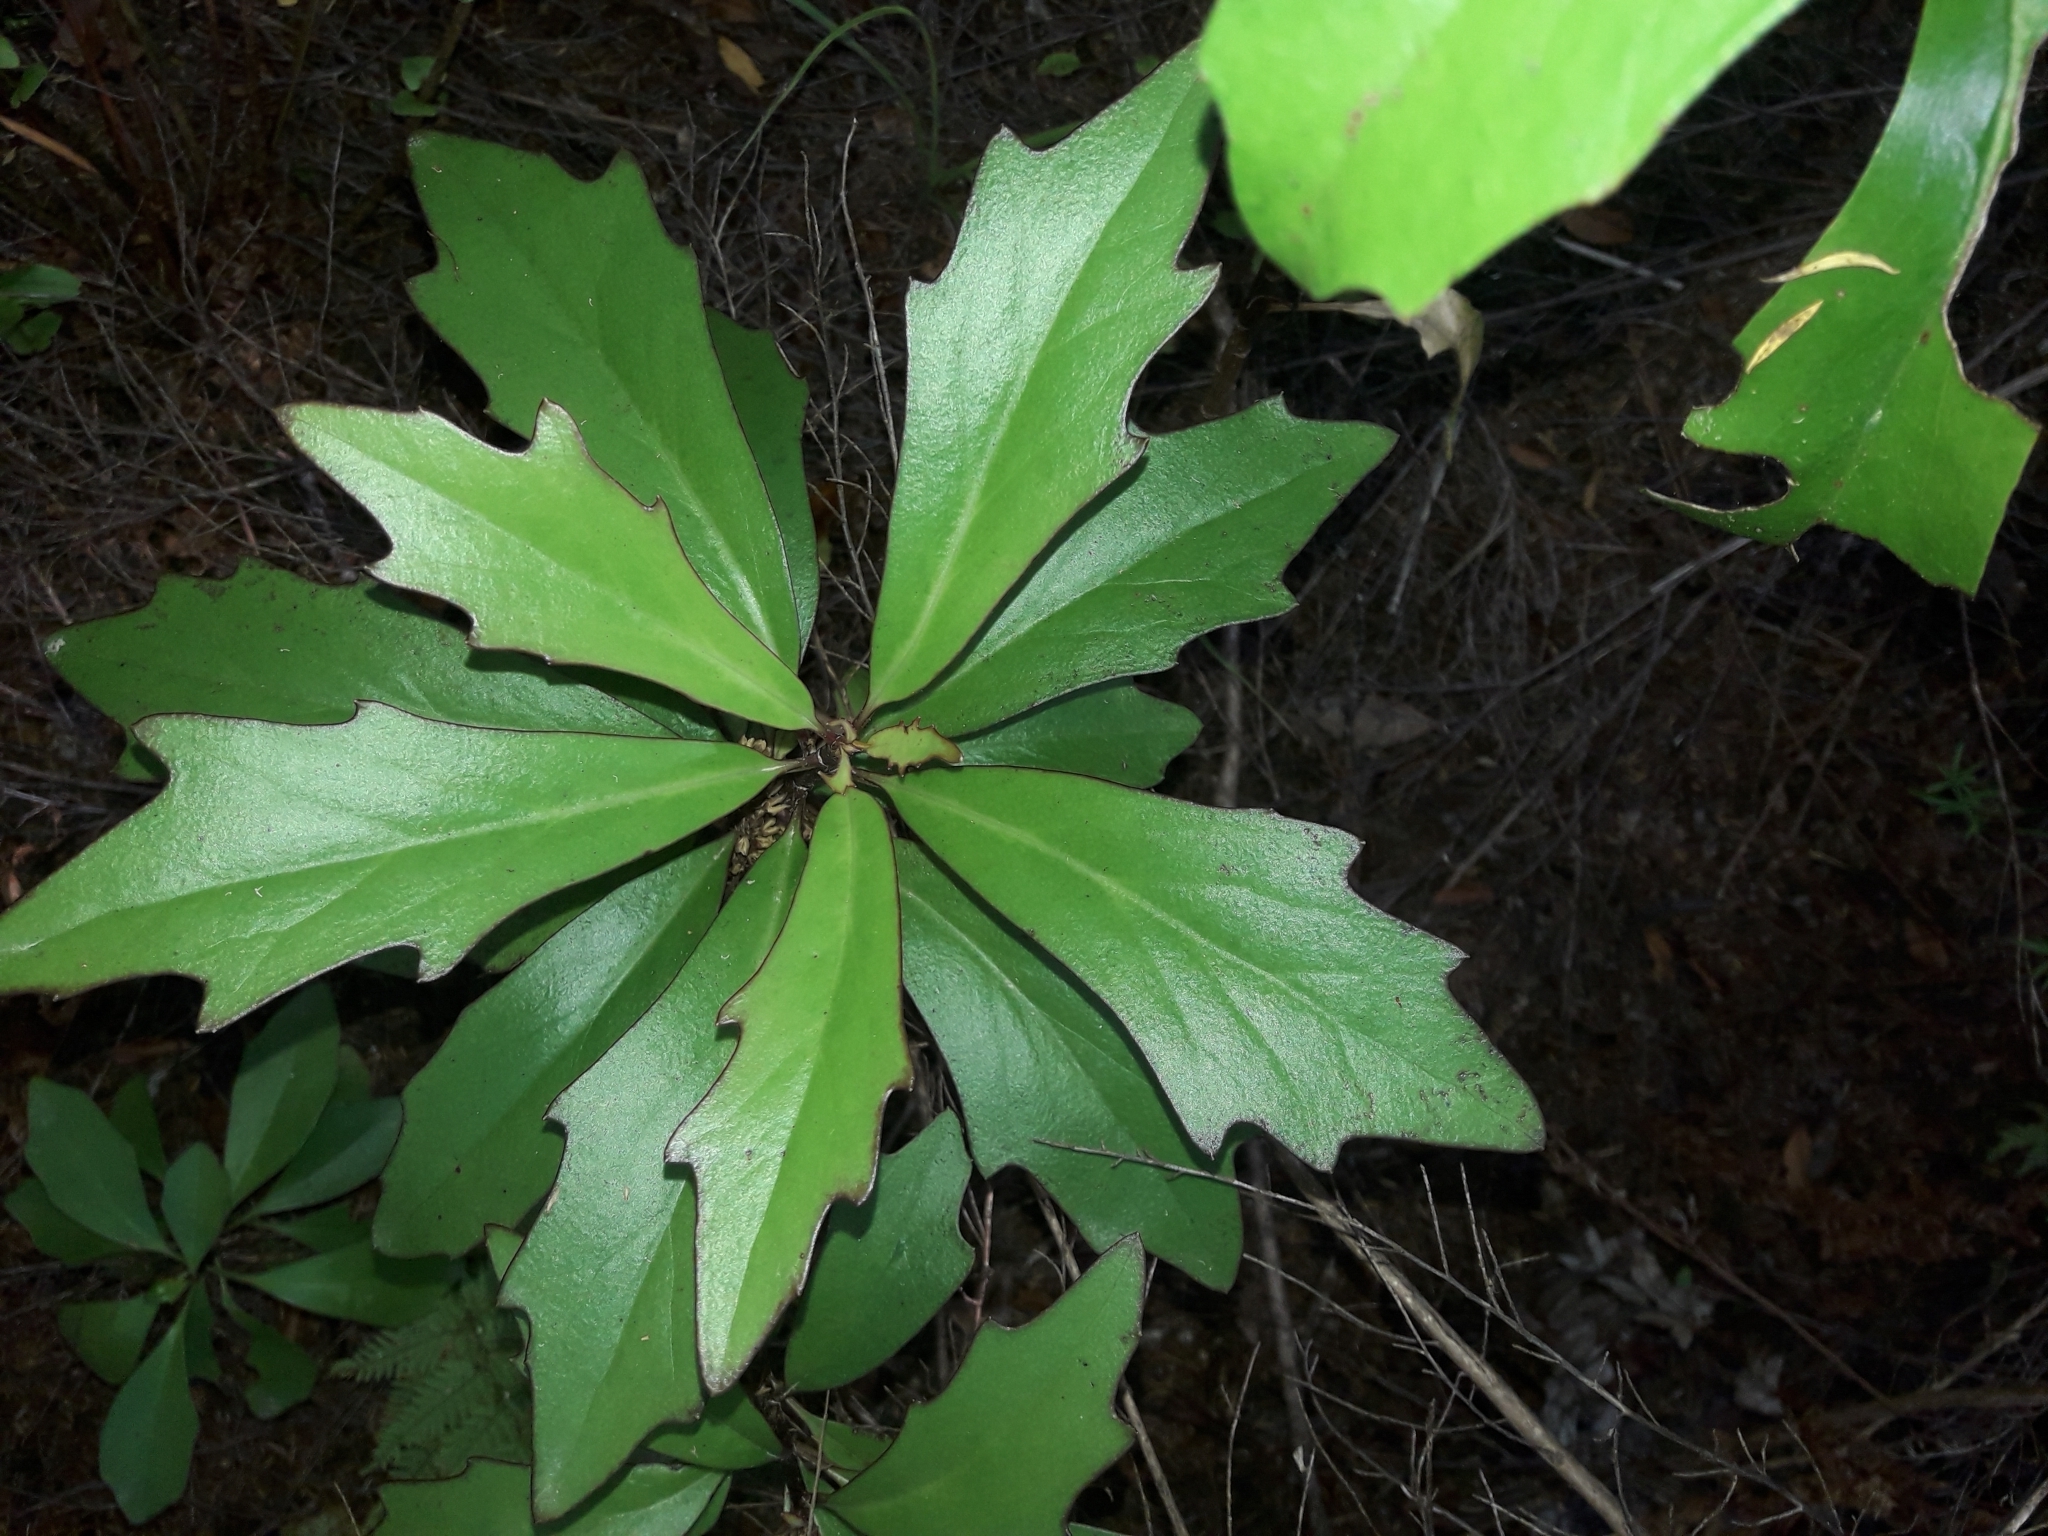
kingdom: Plantae
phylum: Tracheophyta
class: Magnoliopsida
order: Asterales
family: Asteraceae
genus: Brachyglottis
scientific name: Brachyglottis kirkii
